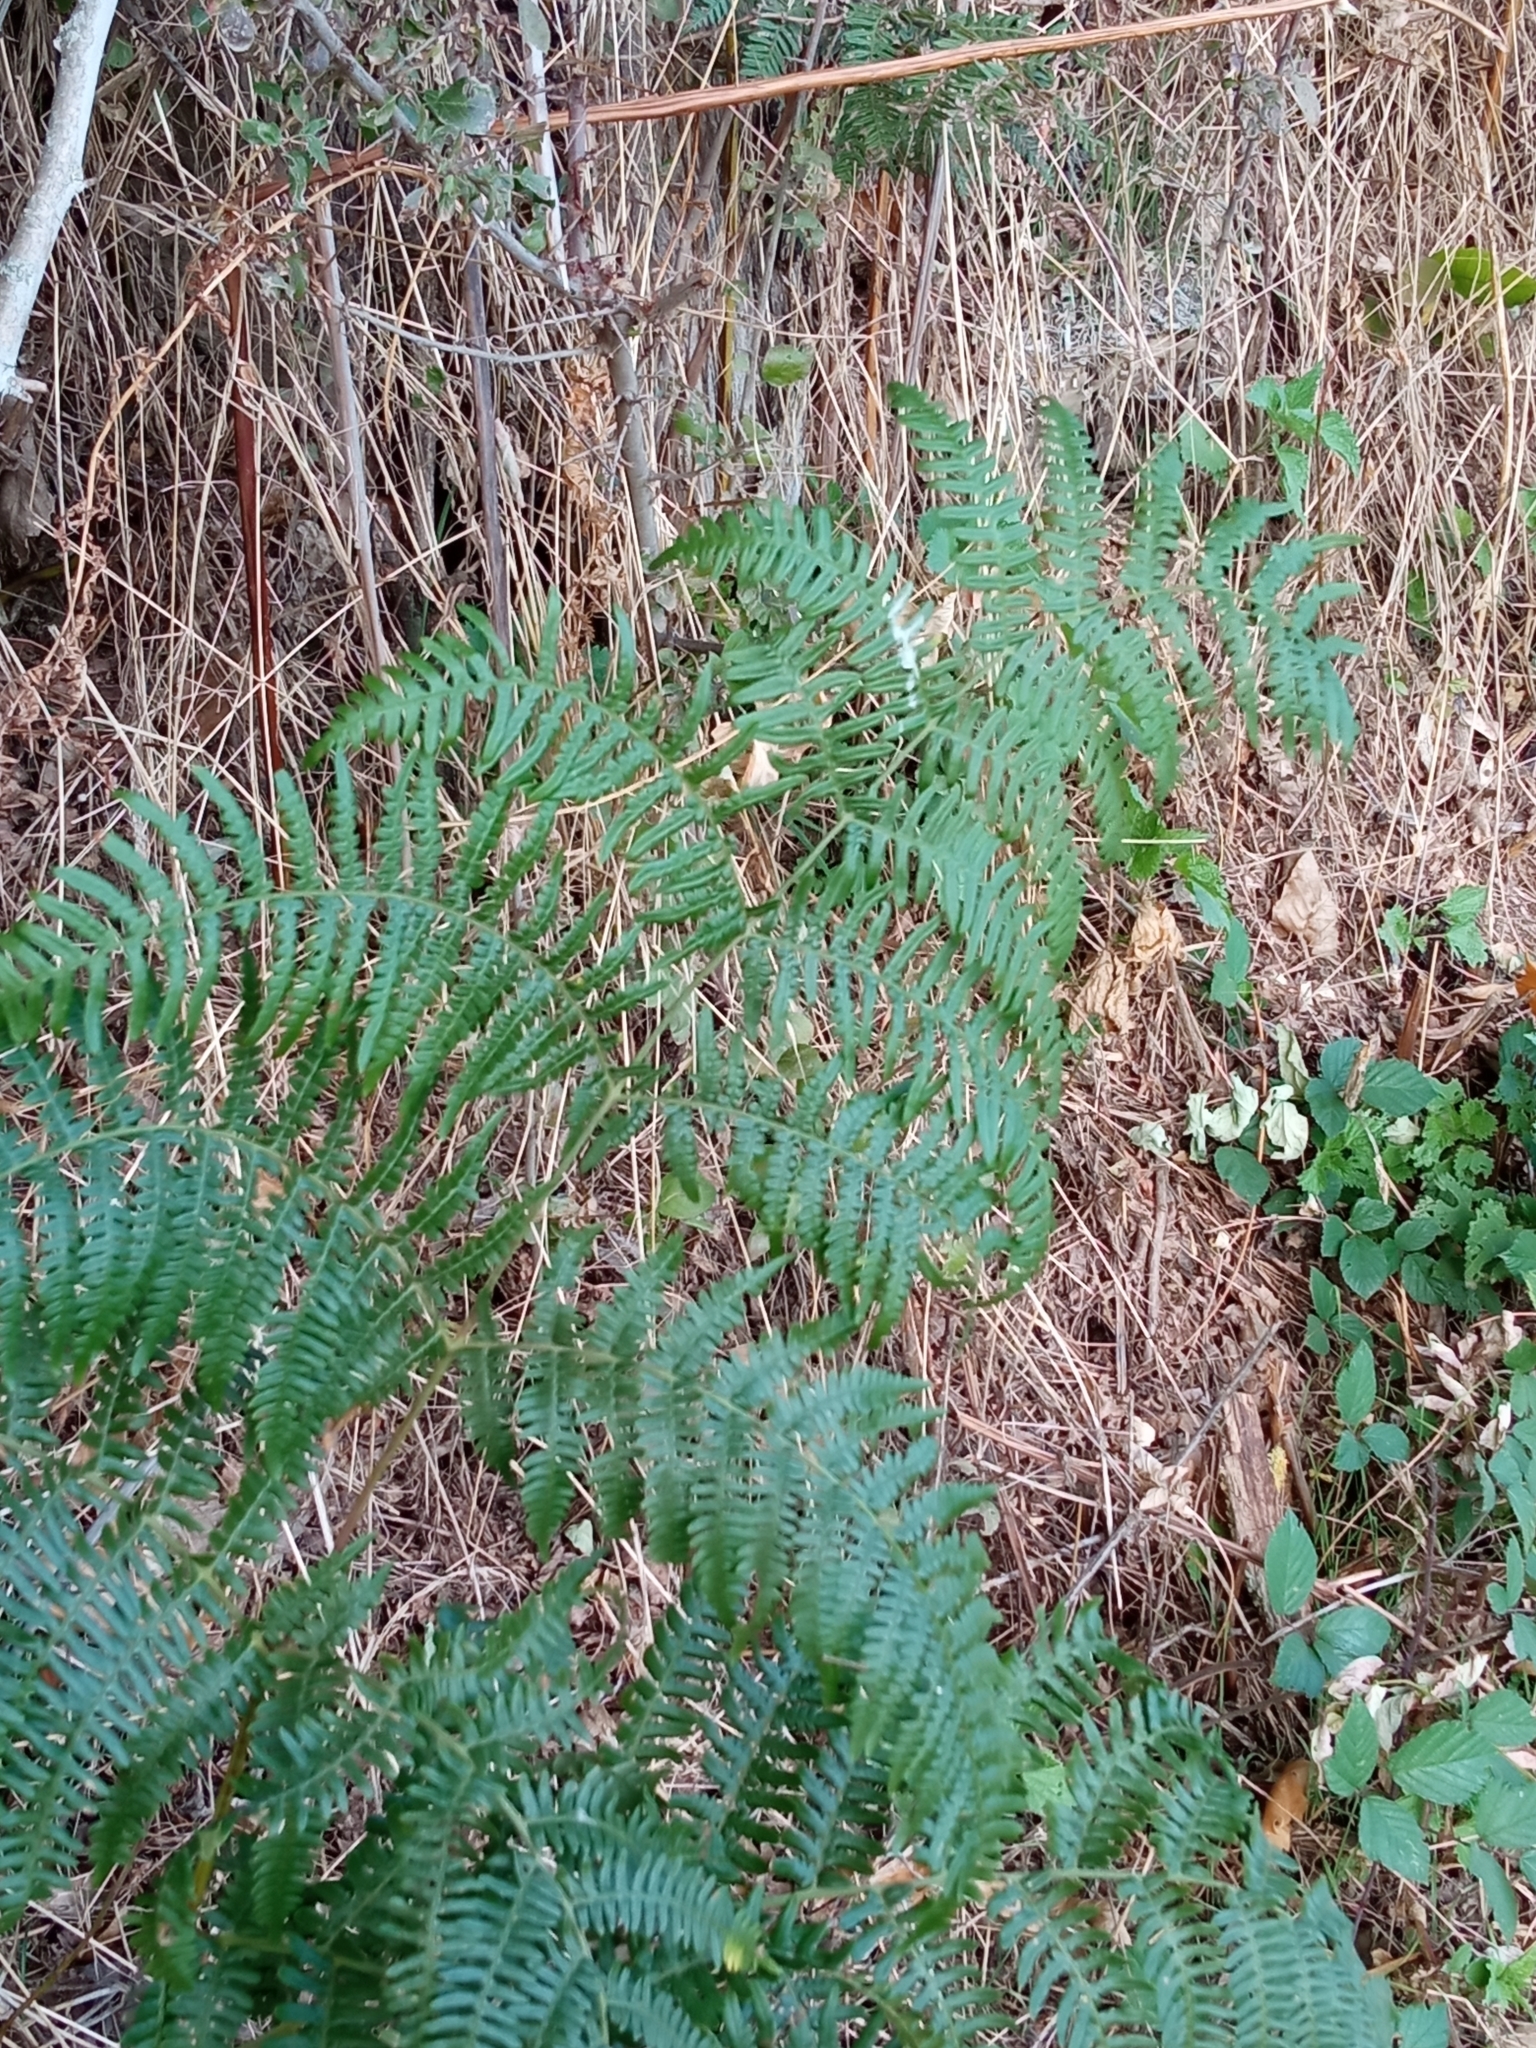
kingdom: Plantae
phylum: Tracheophyta
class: Polypodiopsida
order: Polypodiales
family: Dennstaedtiaceae
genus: Pteridium
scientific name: Pteridium aquilinum
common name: Bracken
